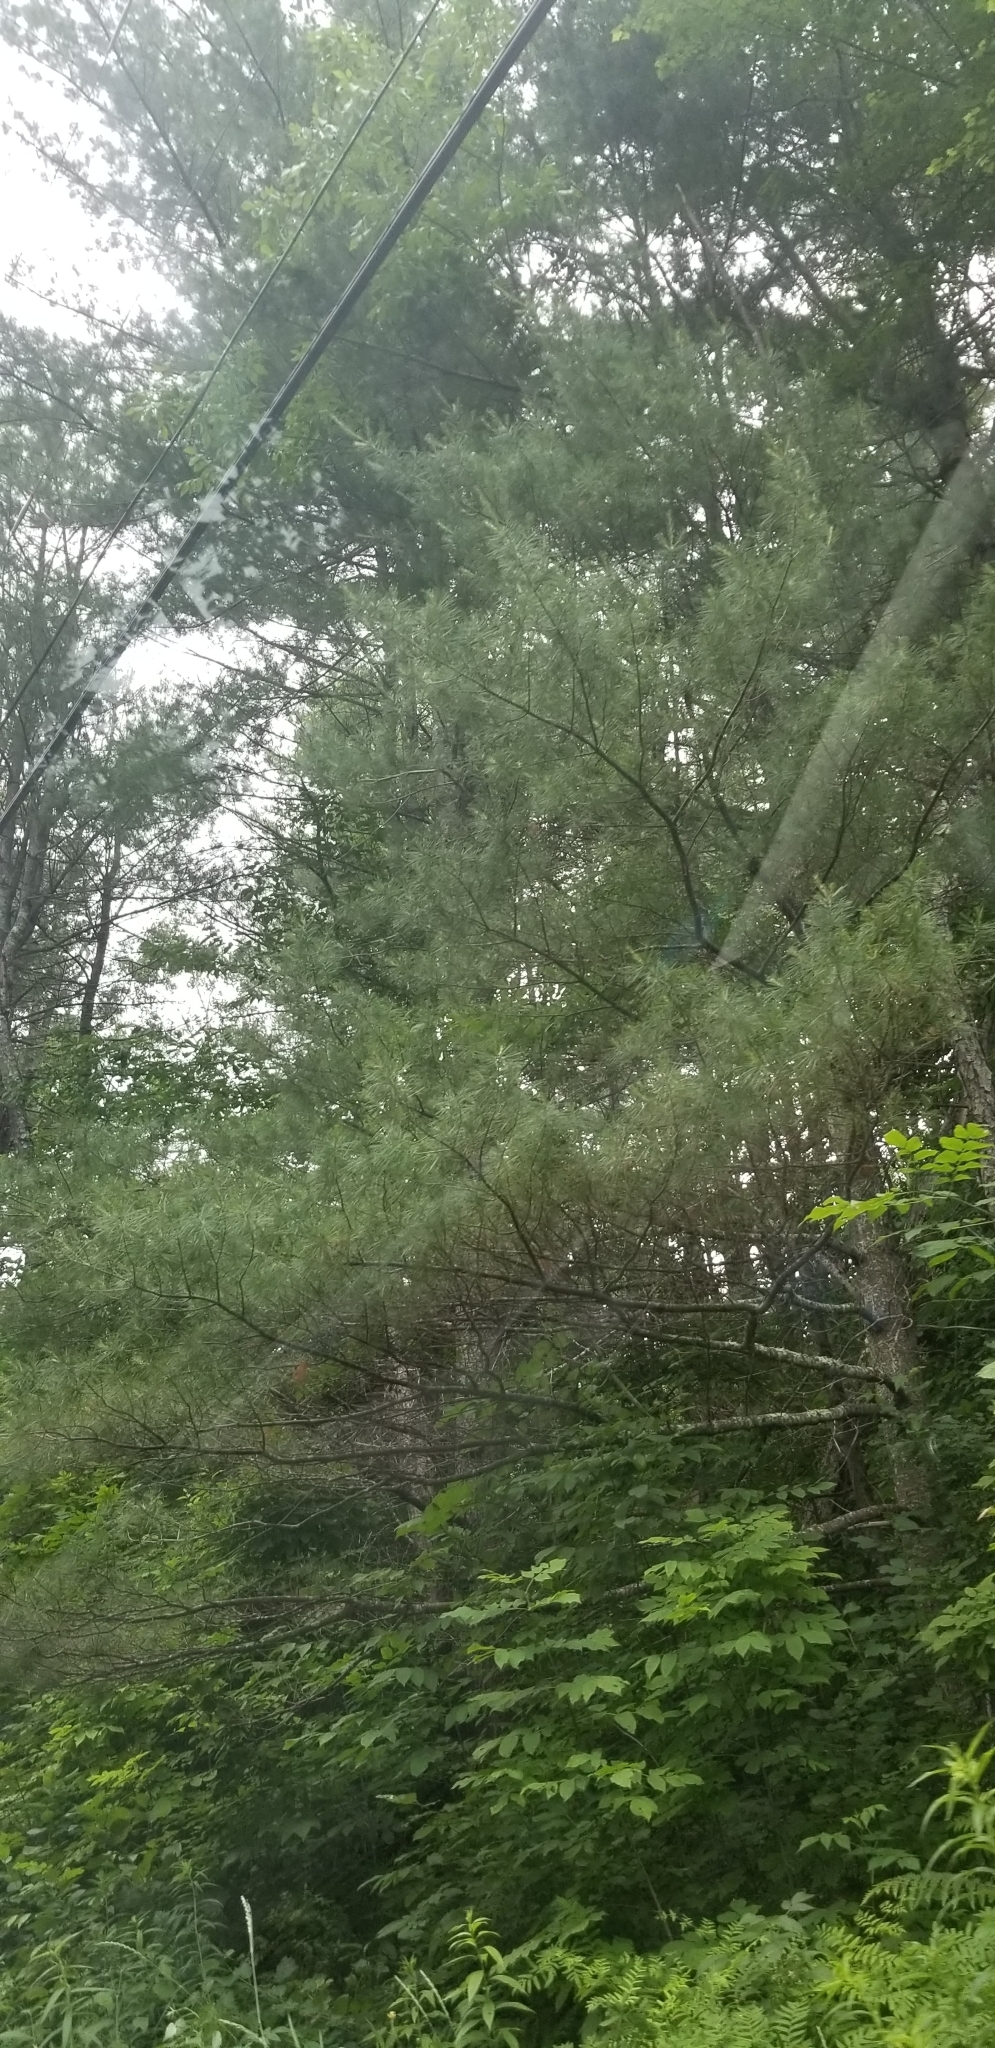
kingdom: Plantae
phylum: Tracheophyta
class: Pinopsida
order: Pinales
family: Pinaceae
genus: Pinus
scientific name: Pinus strobus
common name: Weymouth pine
